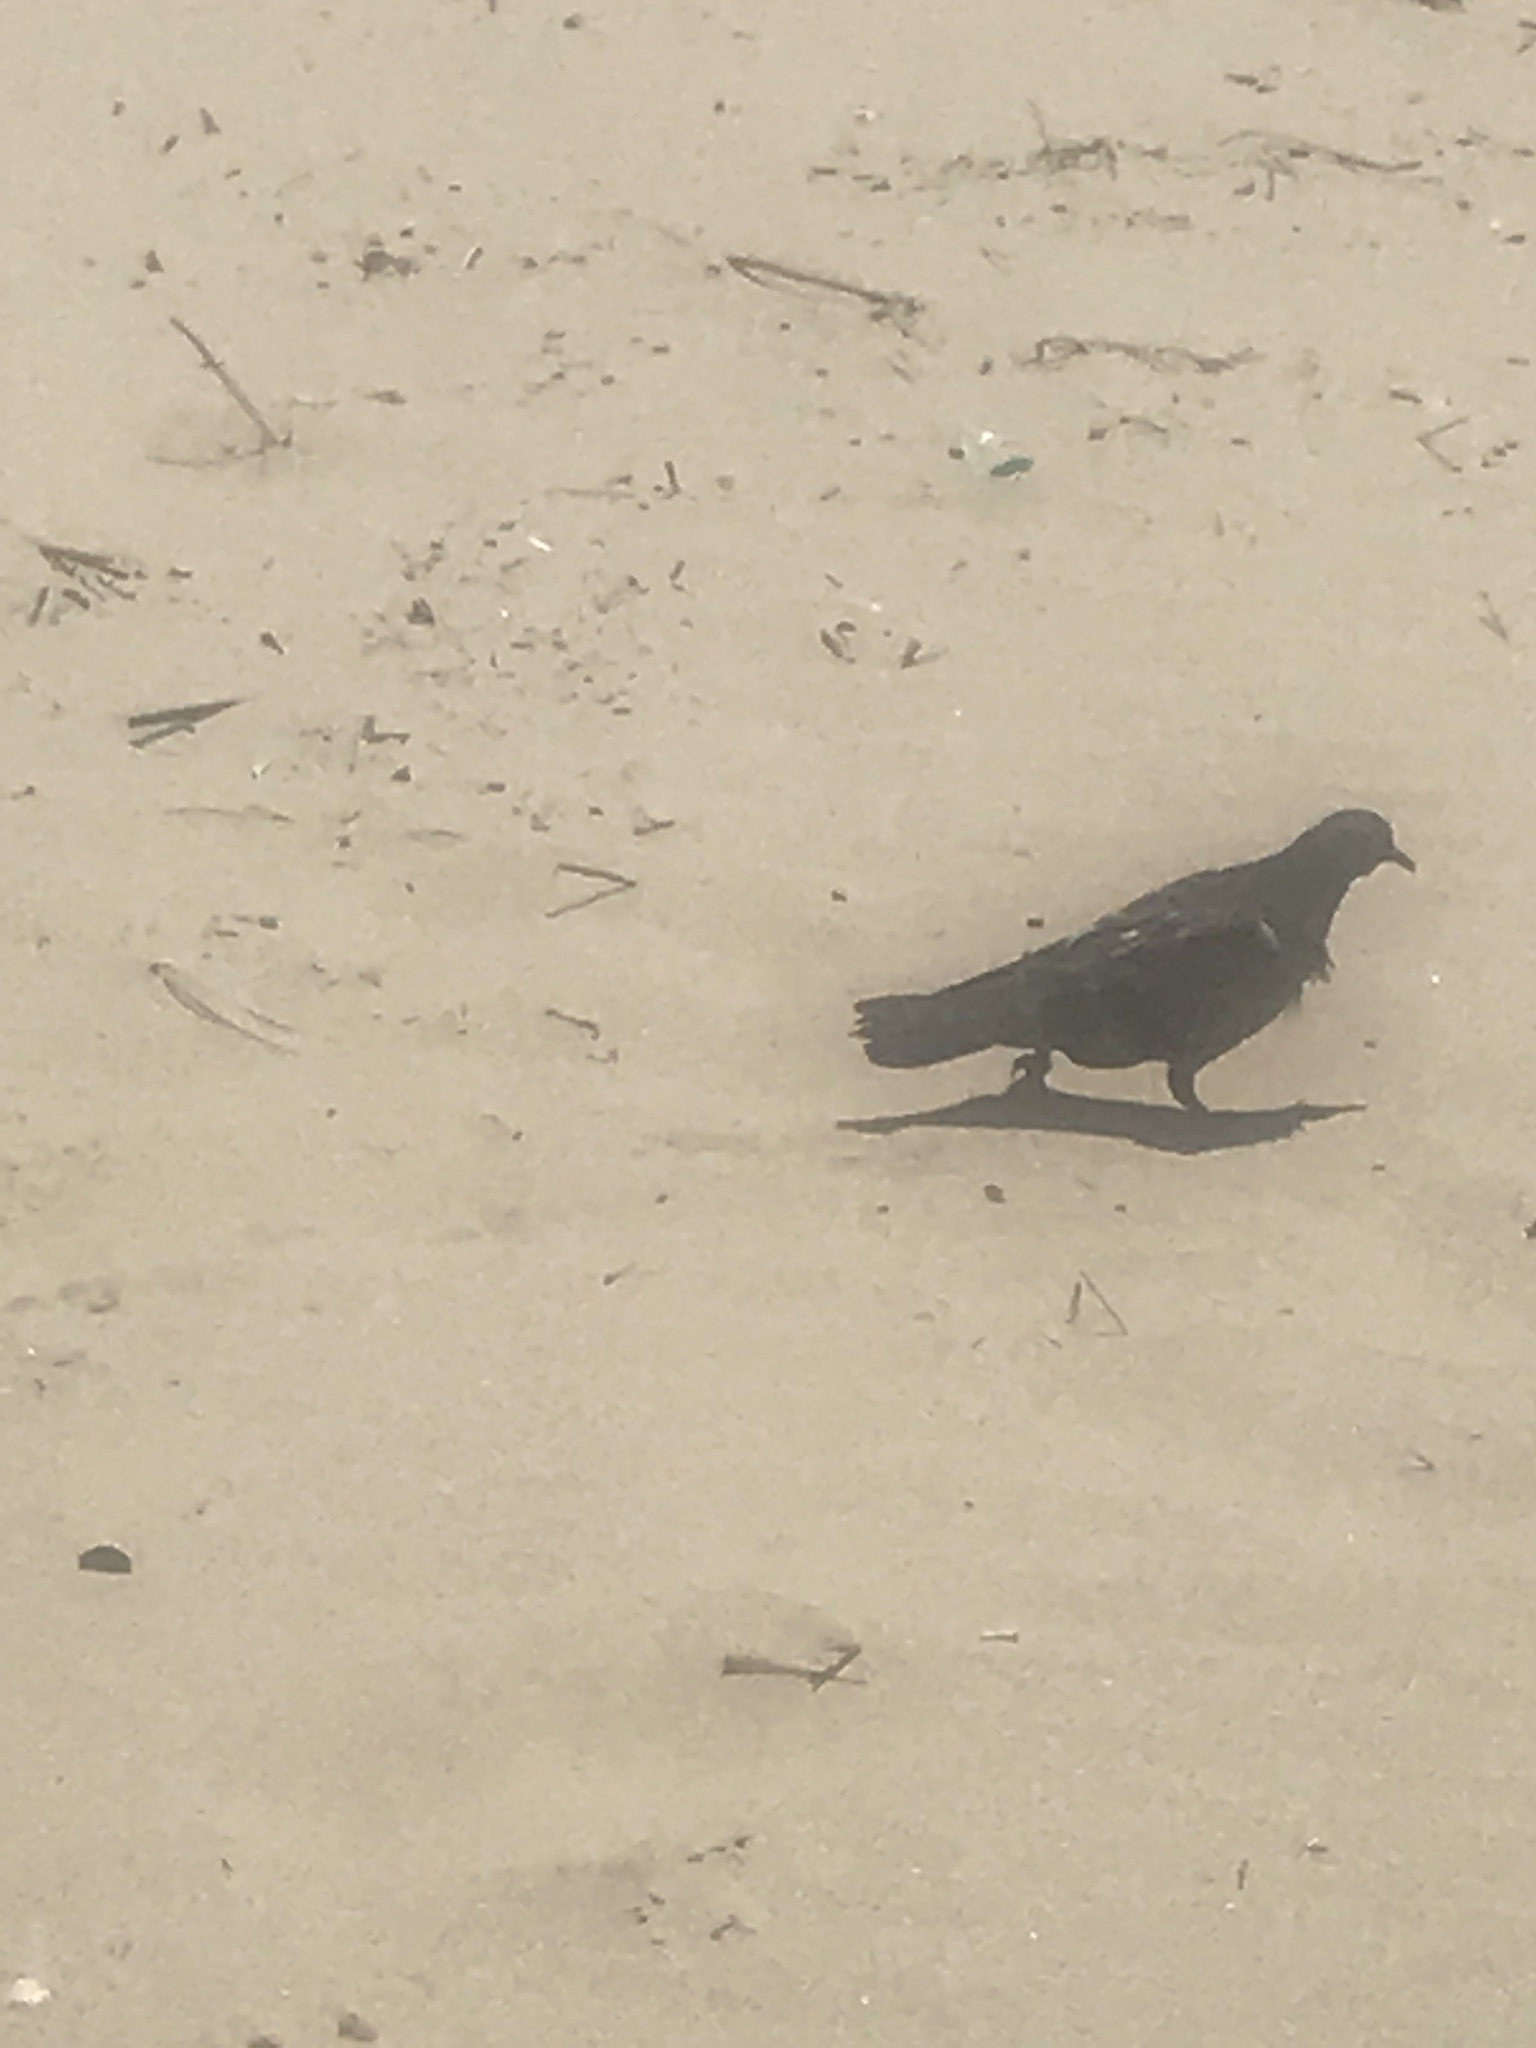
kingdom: Animalia
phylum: Chordata
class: Aves
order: Columbiformes
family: Columbidae
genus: Columba
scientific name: Columba livia
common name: Rock pigeon
